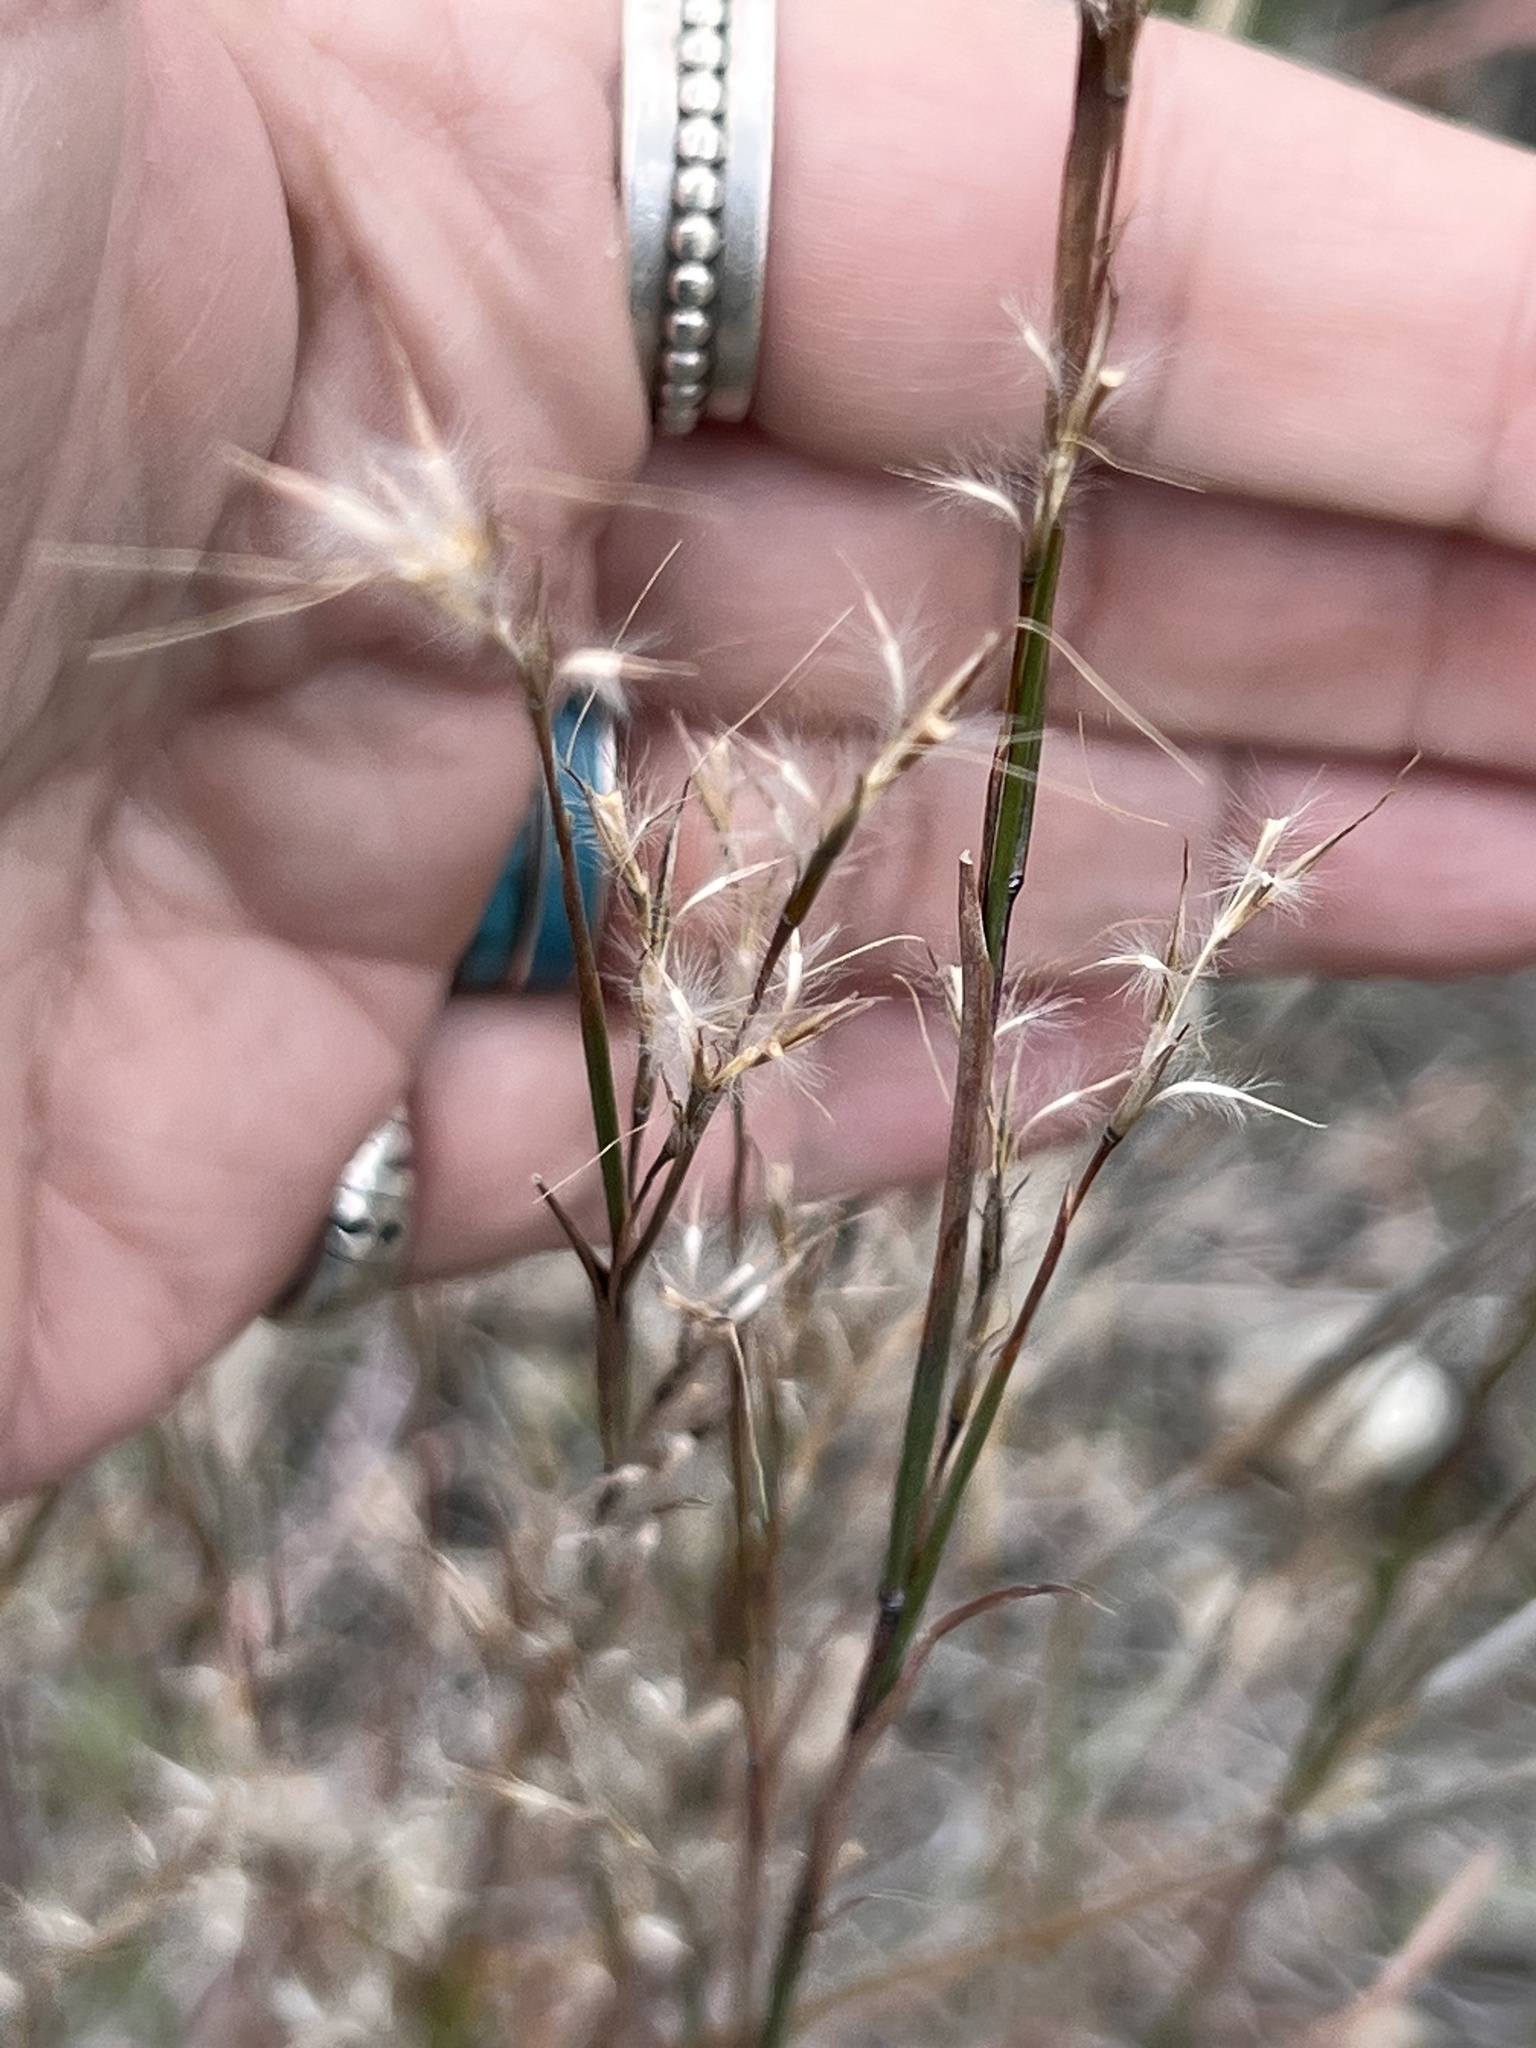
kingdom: Plantae
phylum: Tracheophyta
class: Liliopsida
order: Poales
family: Poaceae
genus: Schizachyrium
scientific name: Schizachyrium scoparium
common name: Little bluestem
